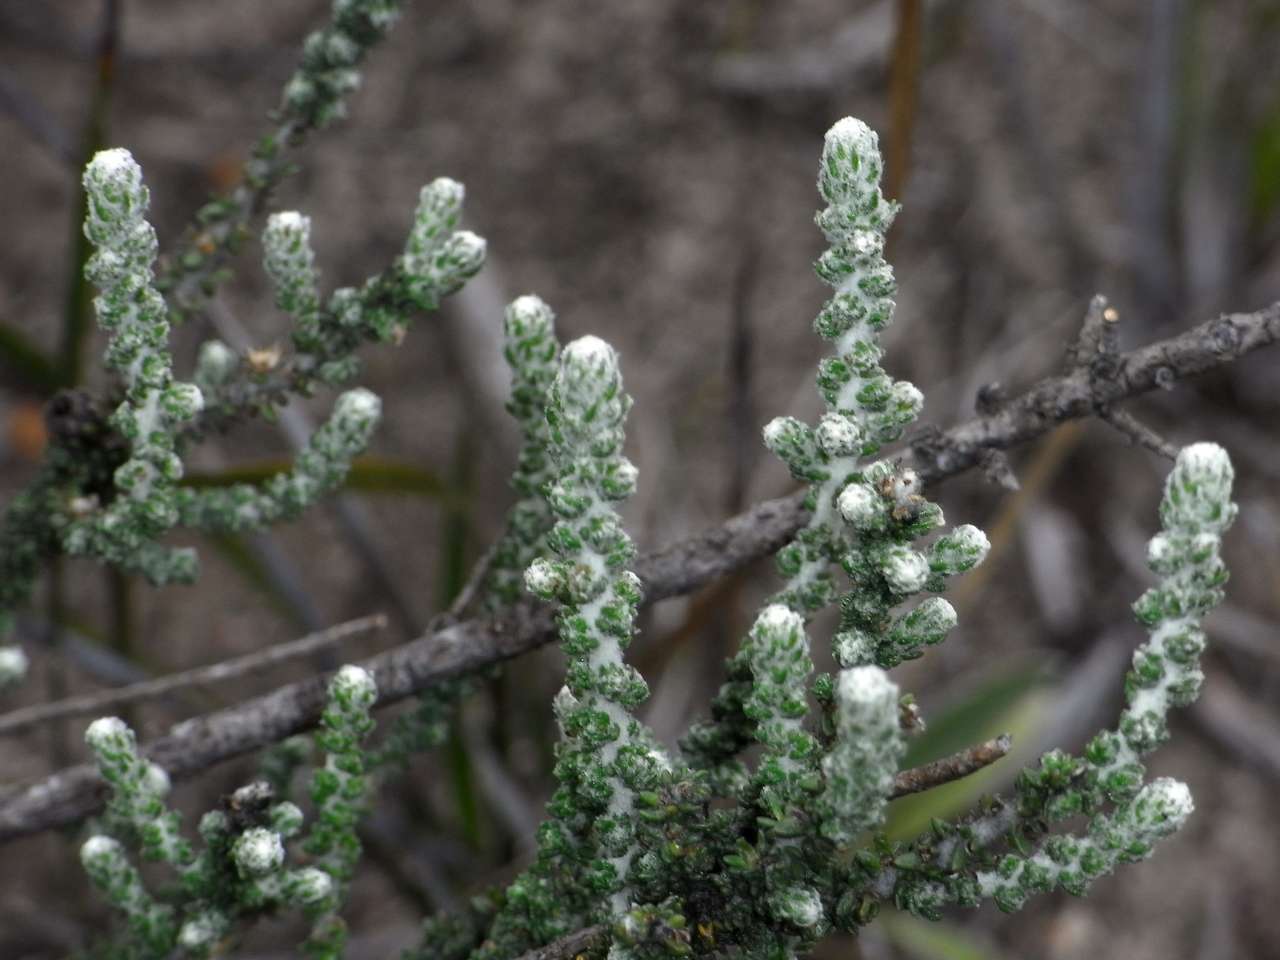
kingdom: Plantae
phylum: Tracheophyta
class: Magnoliopsida
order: Asterales
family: Asteraceae
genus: Olearia
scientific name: Olearia lepidophylla
